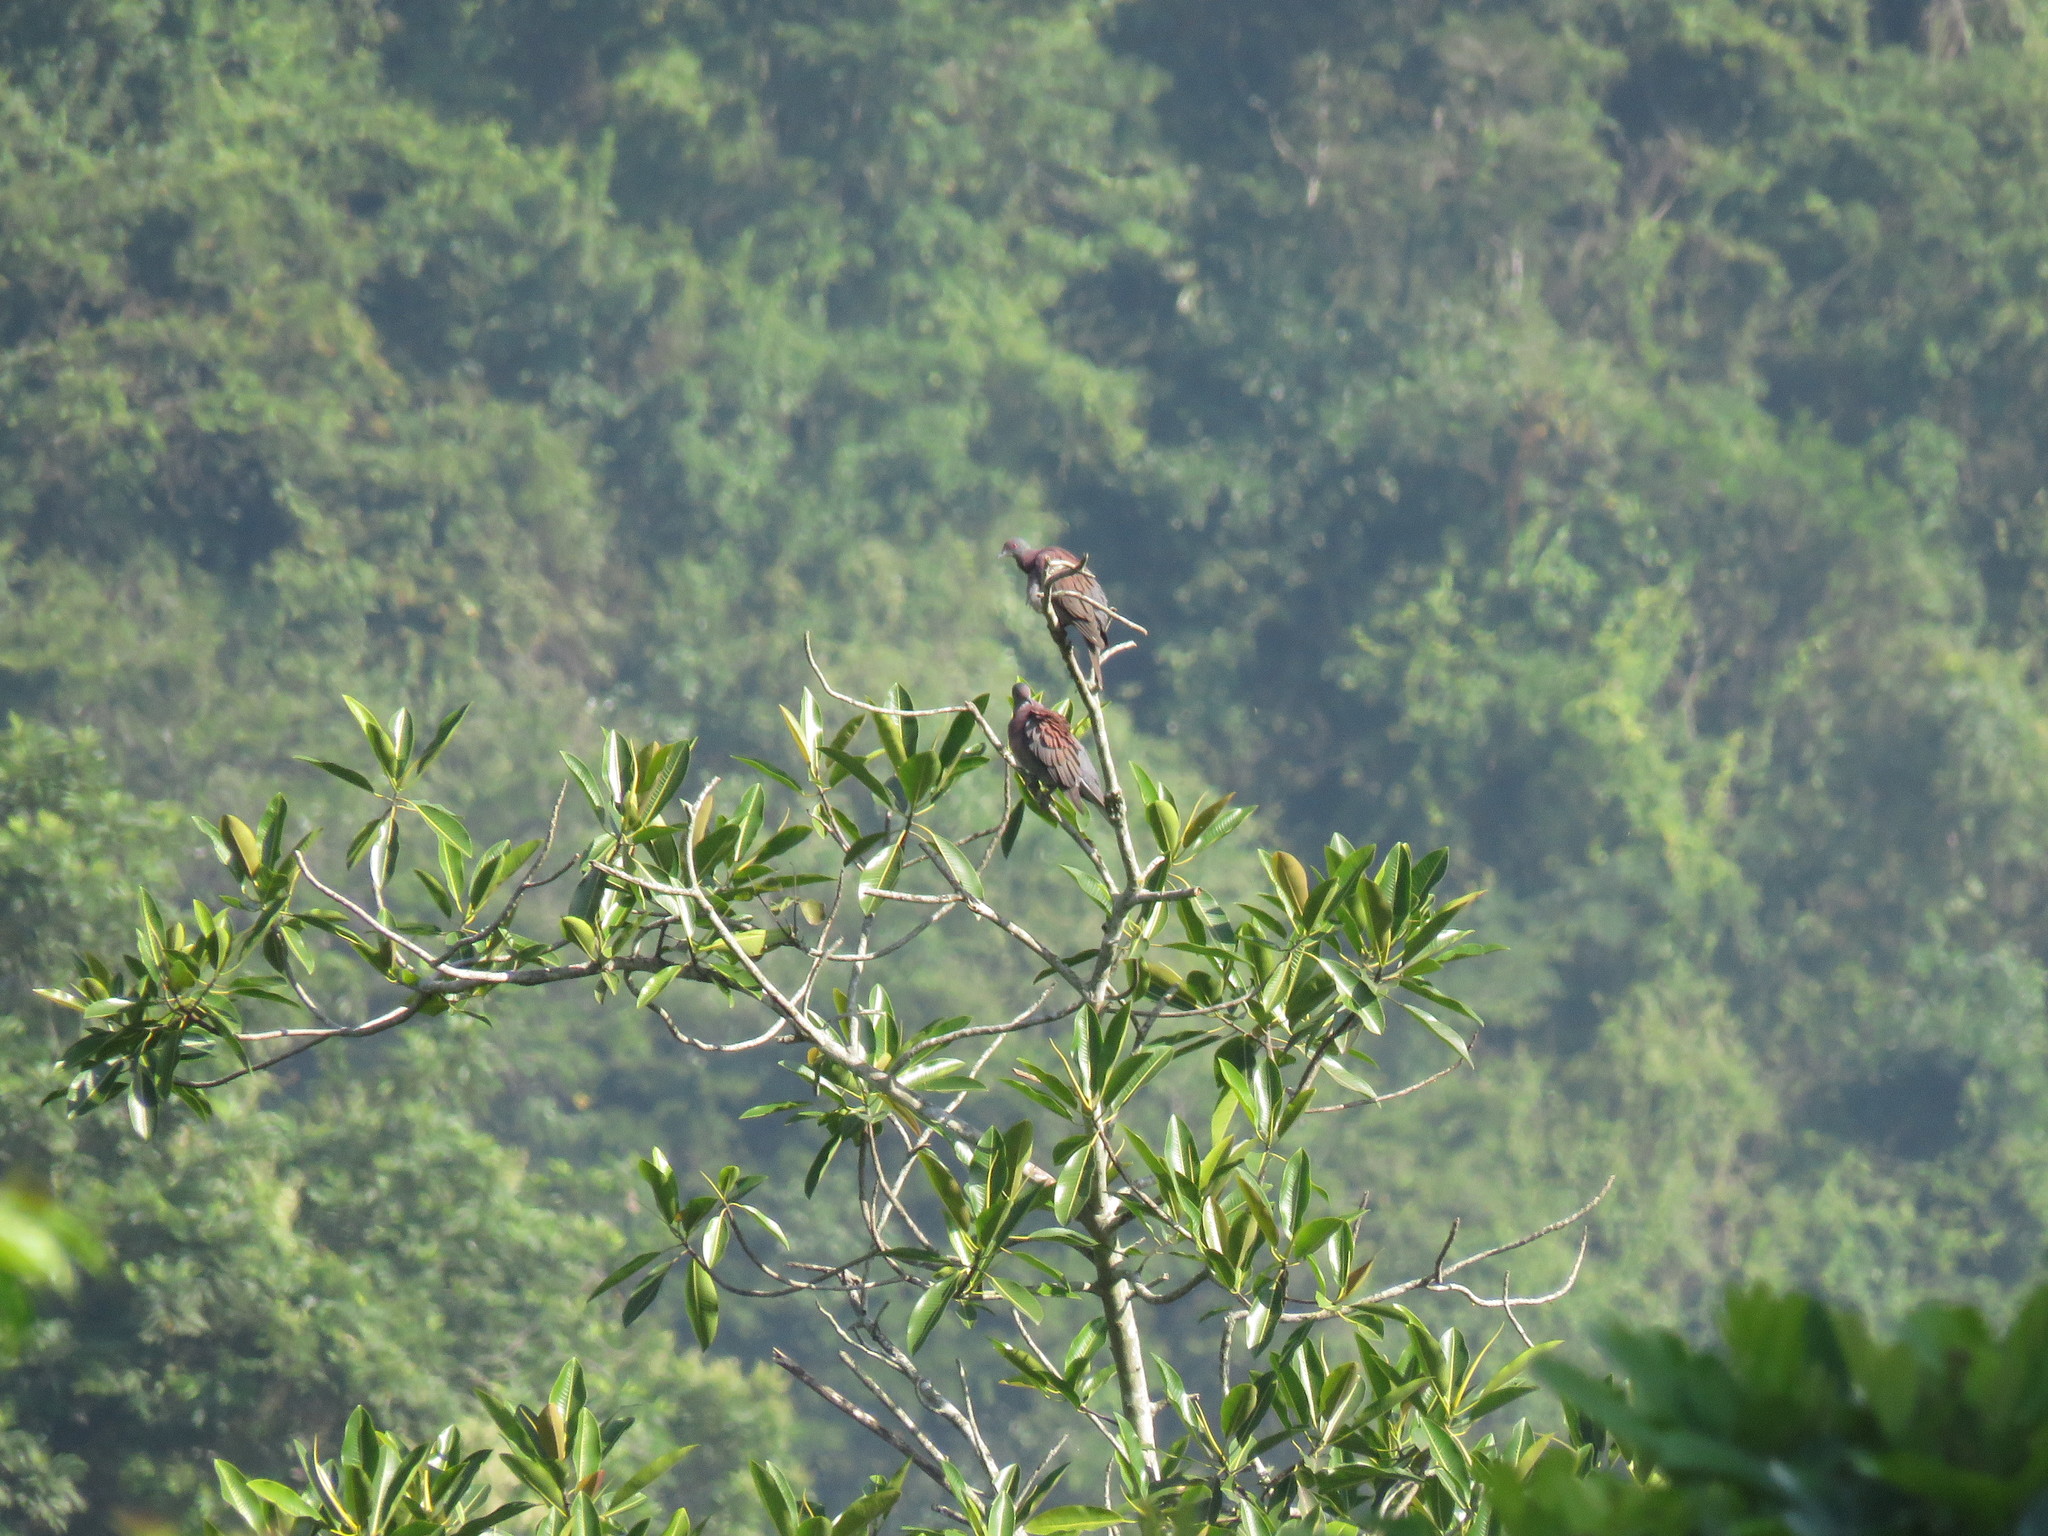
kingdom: Animalia
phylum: Chordata
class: Aves
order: Columbiformes
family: Columbidae
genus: Patagioenas
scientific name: Patagioenas cayennensis
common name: Pale-vented pigeon
